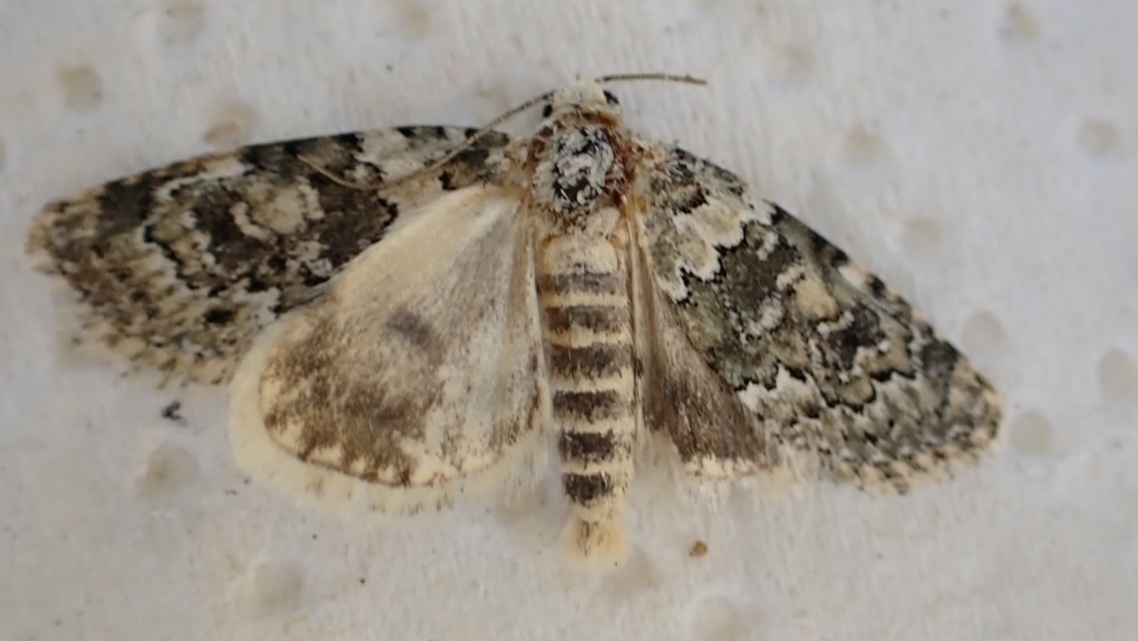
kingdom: Animalia
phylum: Arthropoda
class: Insecta
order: Lepidoptera
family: Noctuidae
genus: Bryophila
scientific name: Bryophila domestica
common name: Marbled beauty
